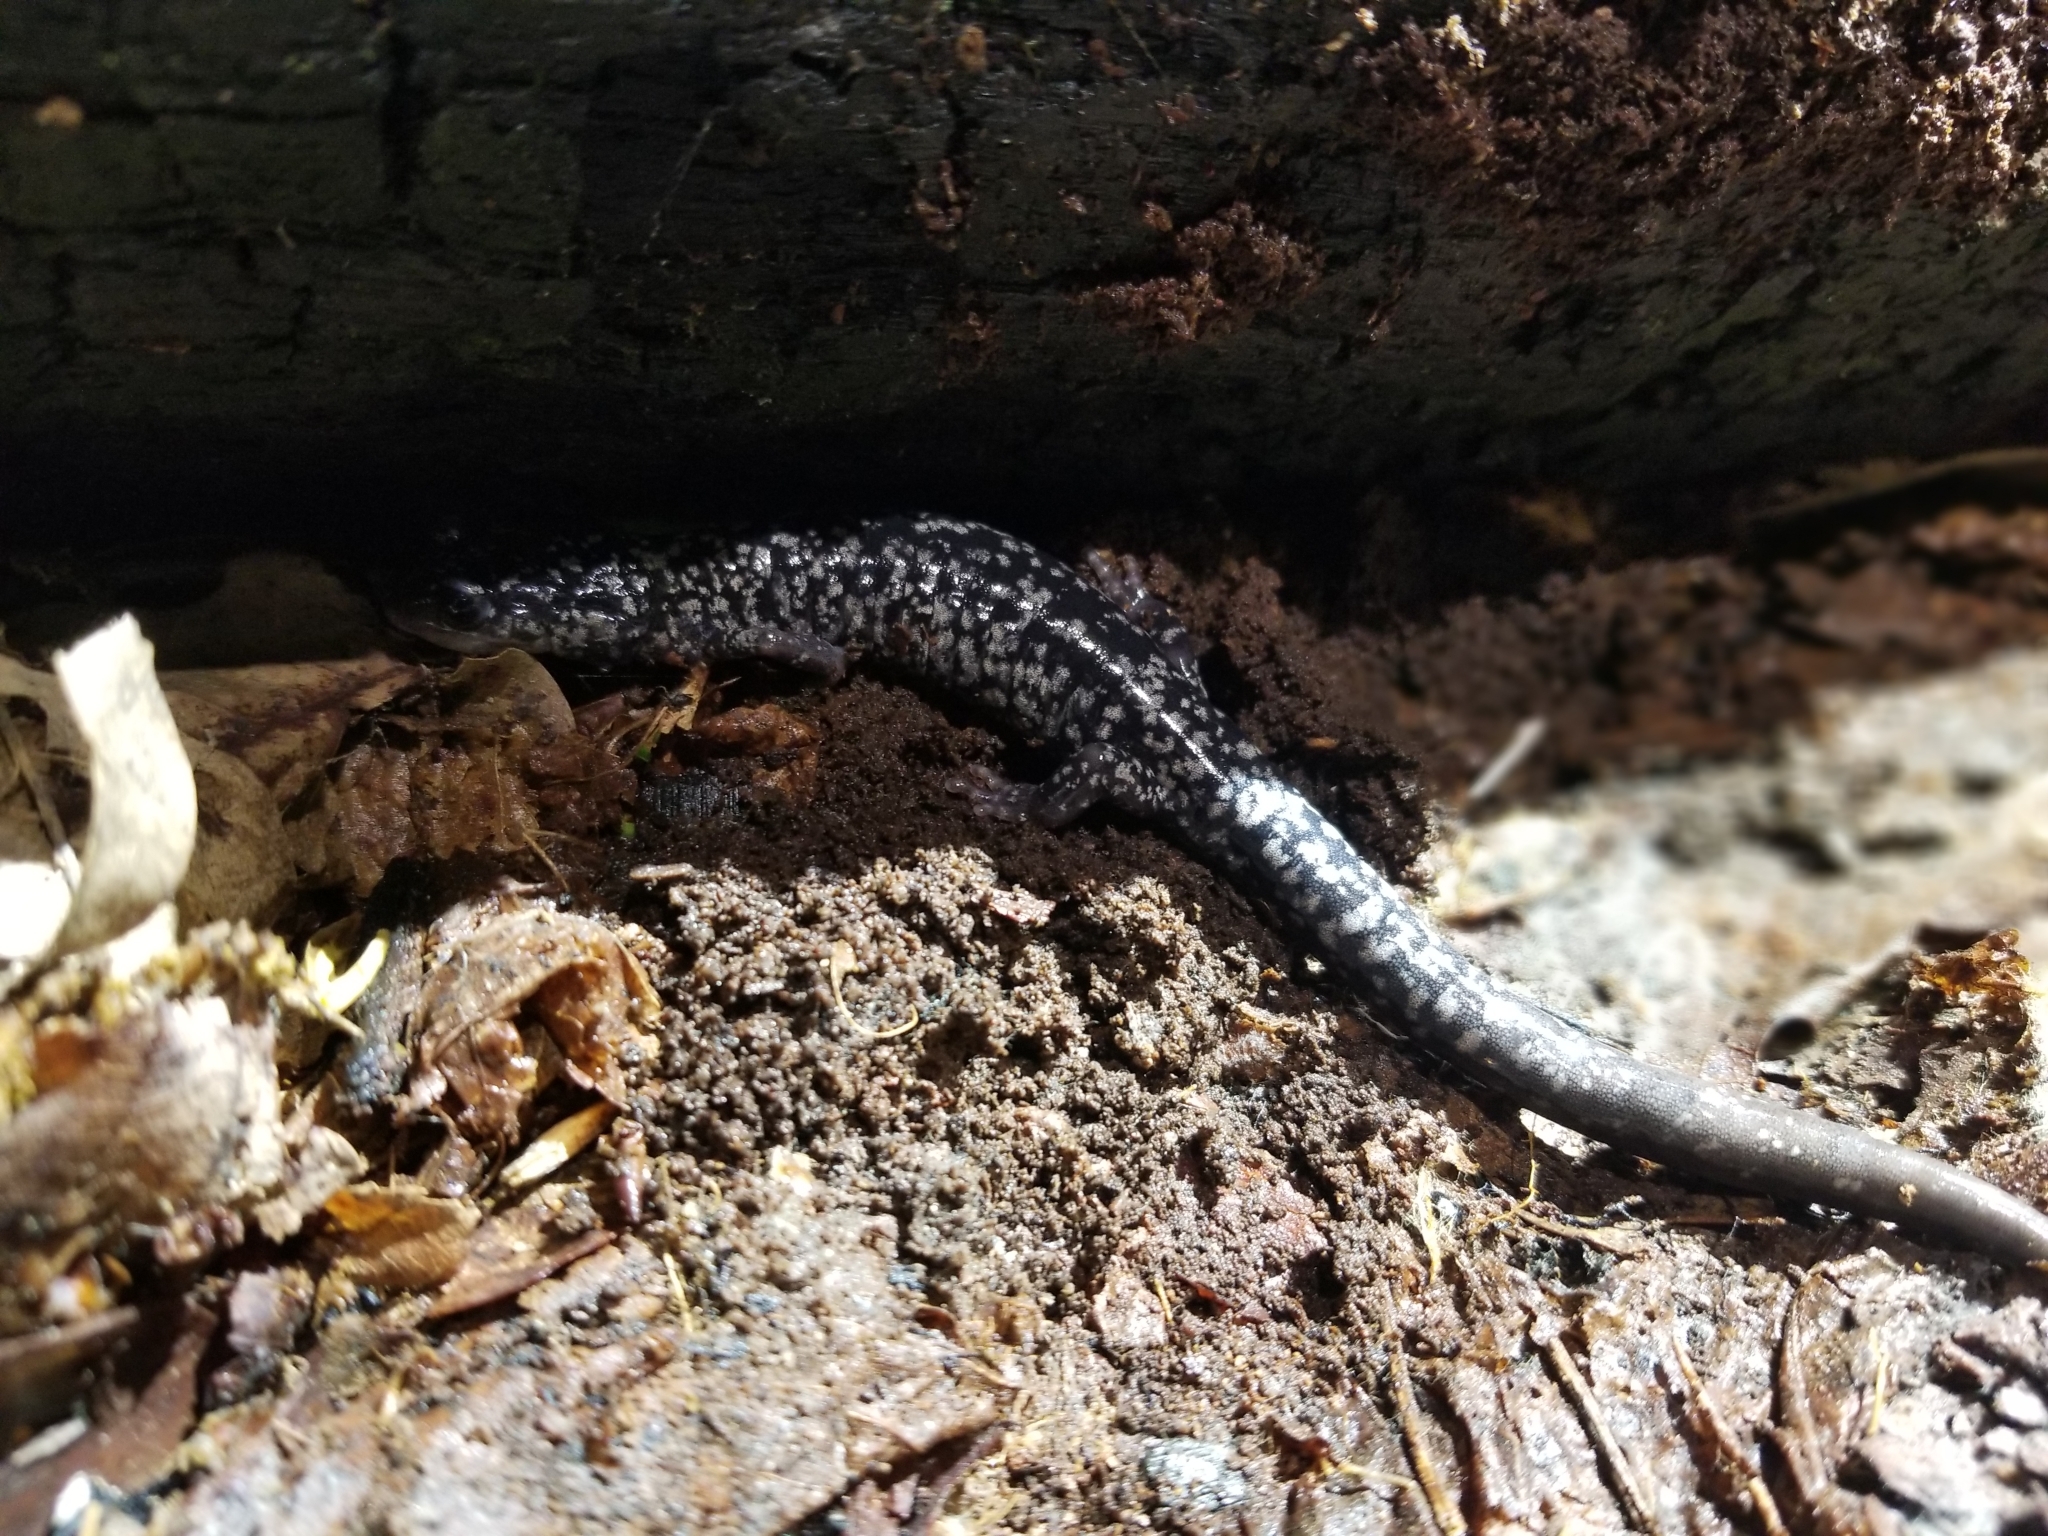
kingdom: Animalia
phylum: Chordata
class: Amphibia
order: Caudata
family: Plethodontidae
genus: Plethodon
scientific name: Plethodon cylindraceus
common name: White-spotted slimy salamander
